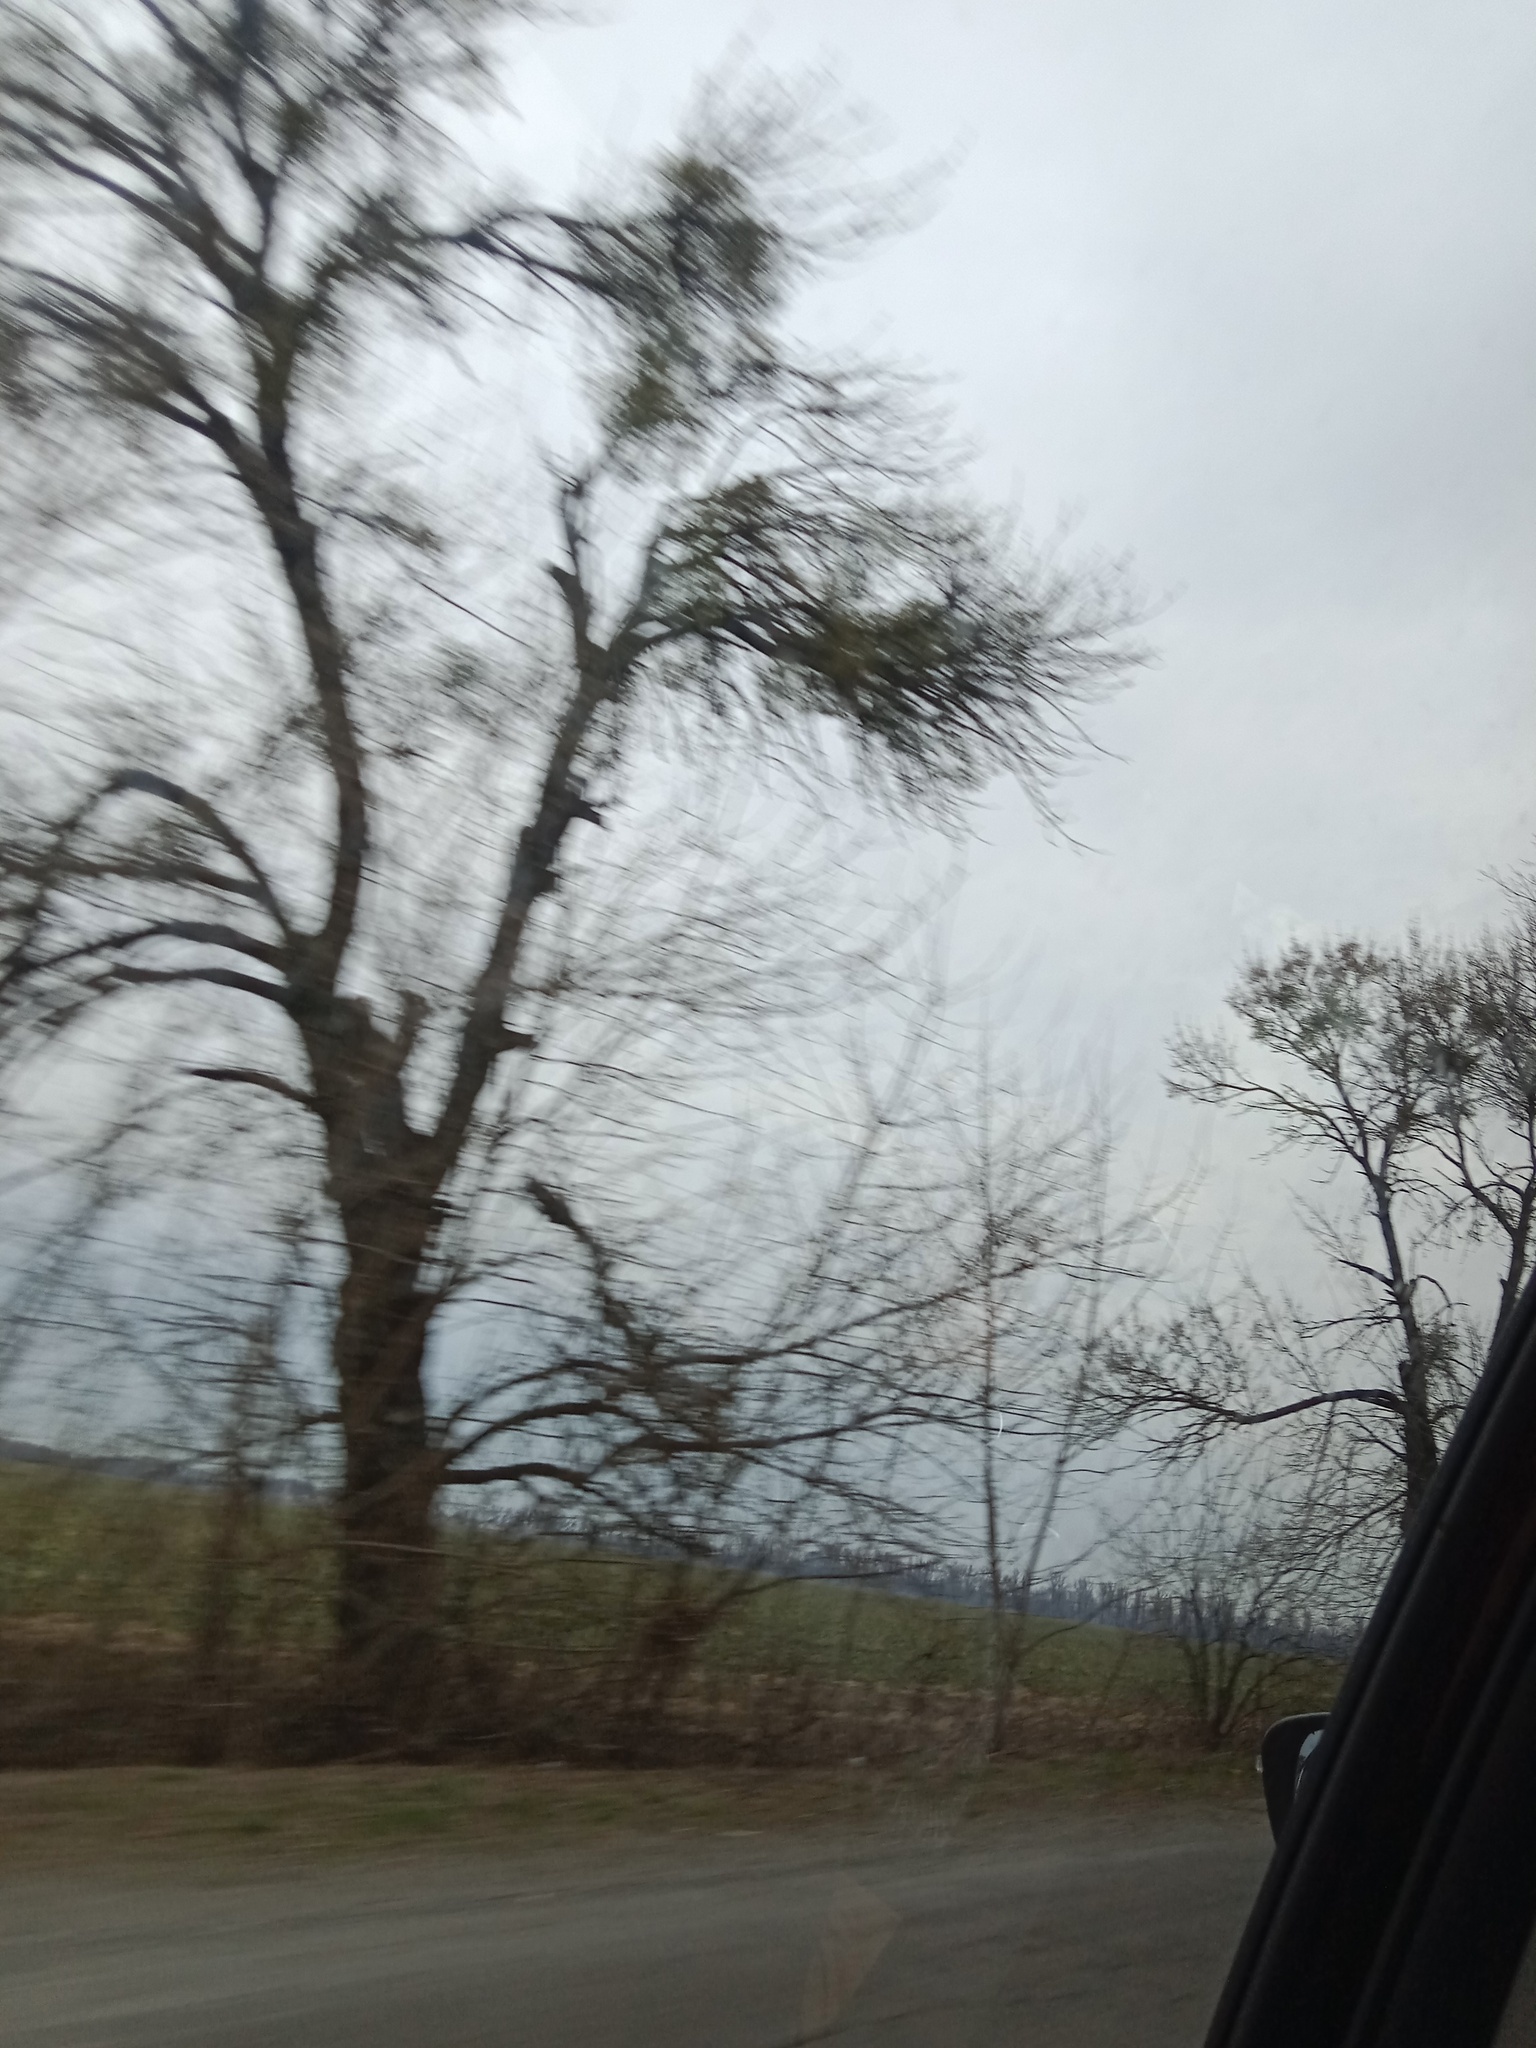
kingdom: Plantae
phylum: Tracheophyta
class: Magnoliopsida
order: Santalales
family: Viscaceae
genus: Viscum
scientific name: Viscum album
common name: Mistletoe
